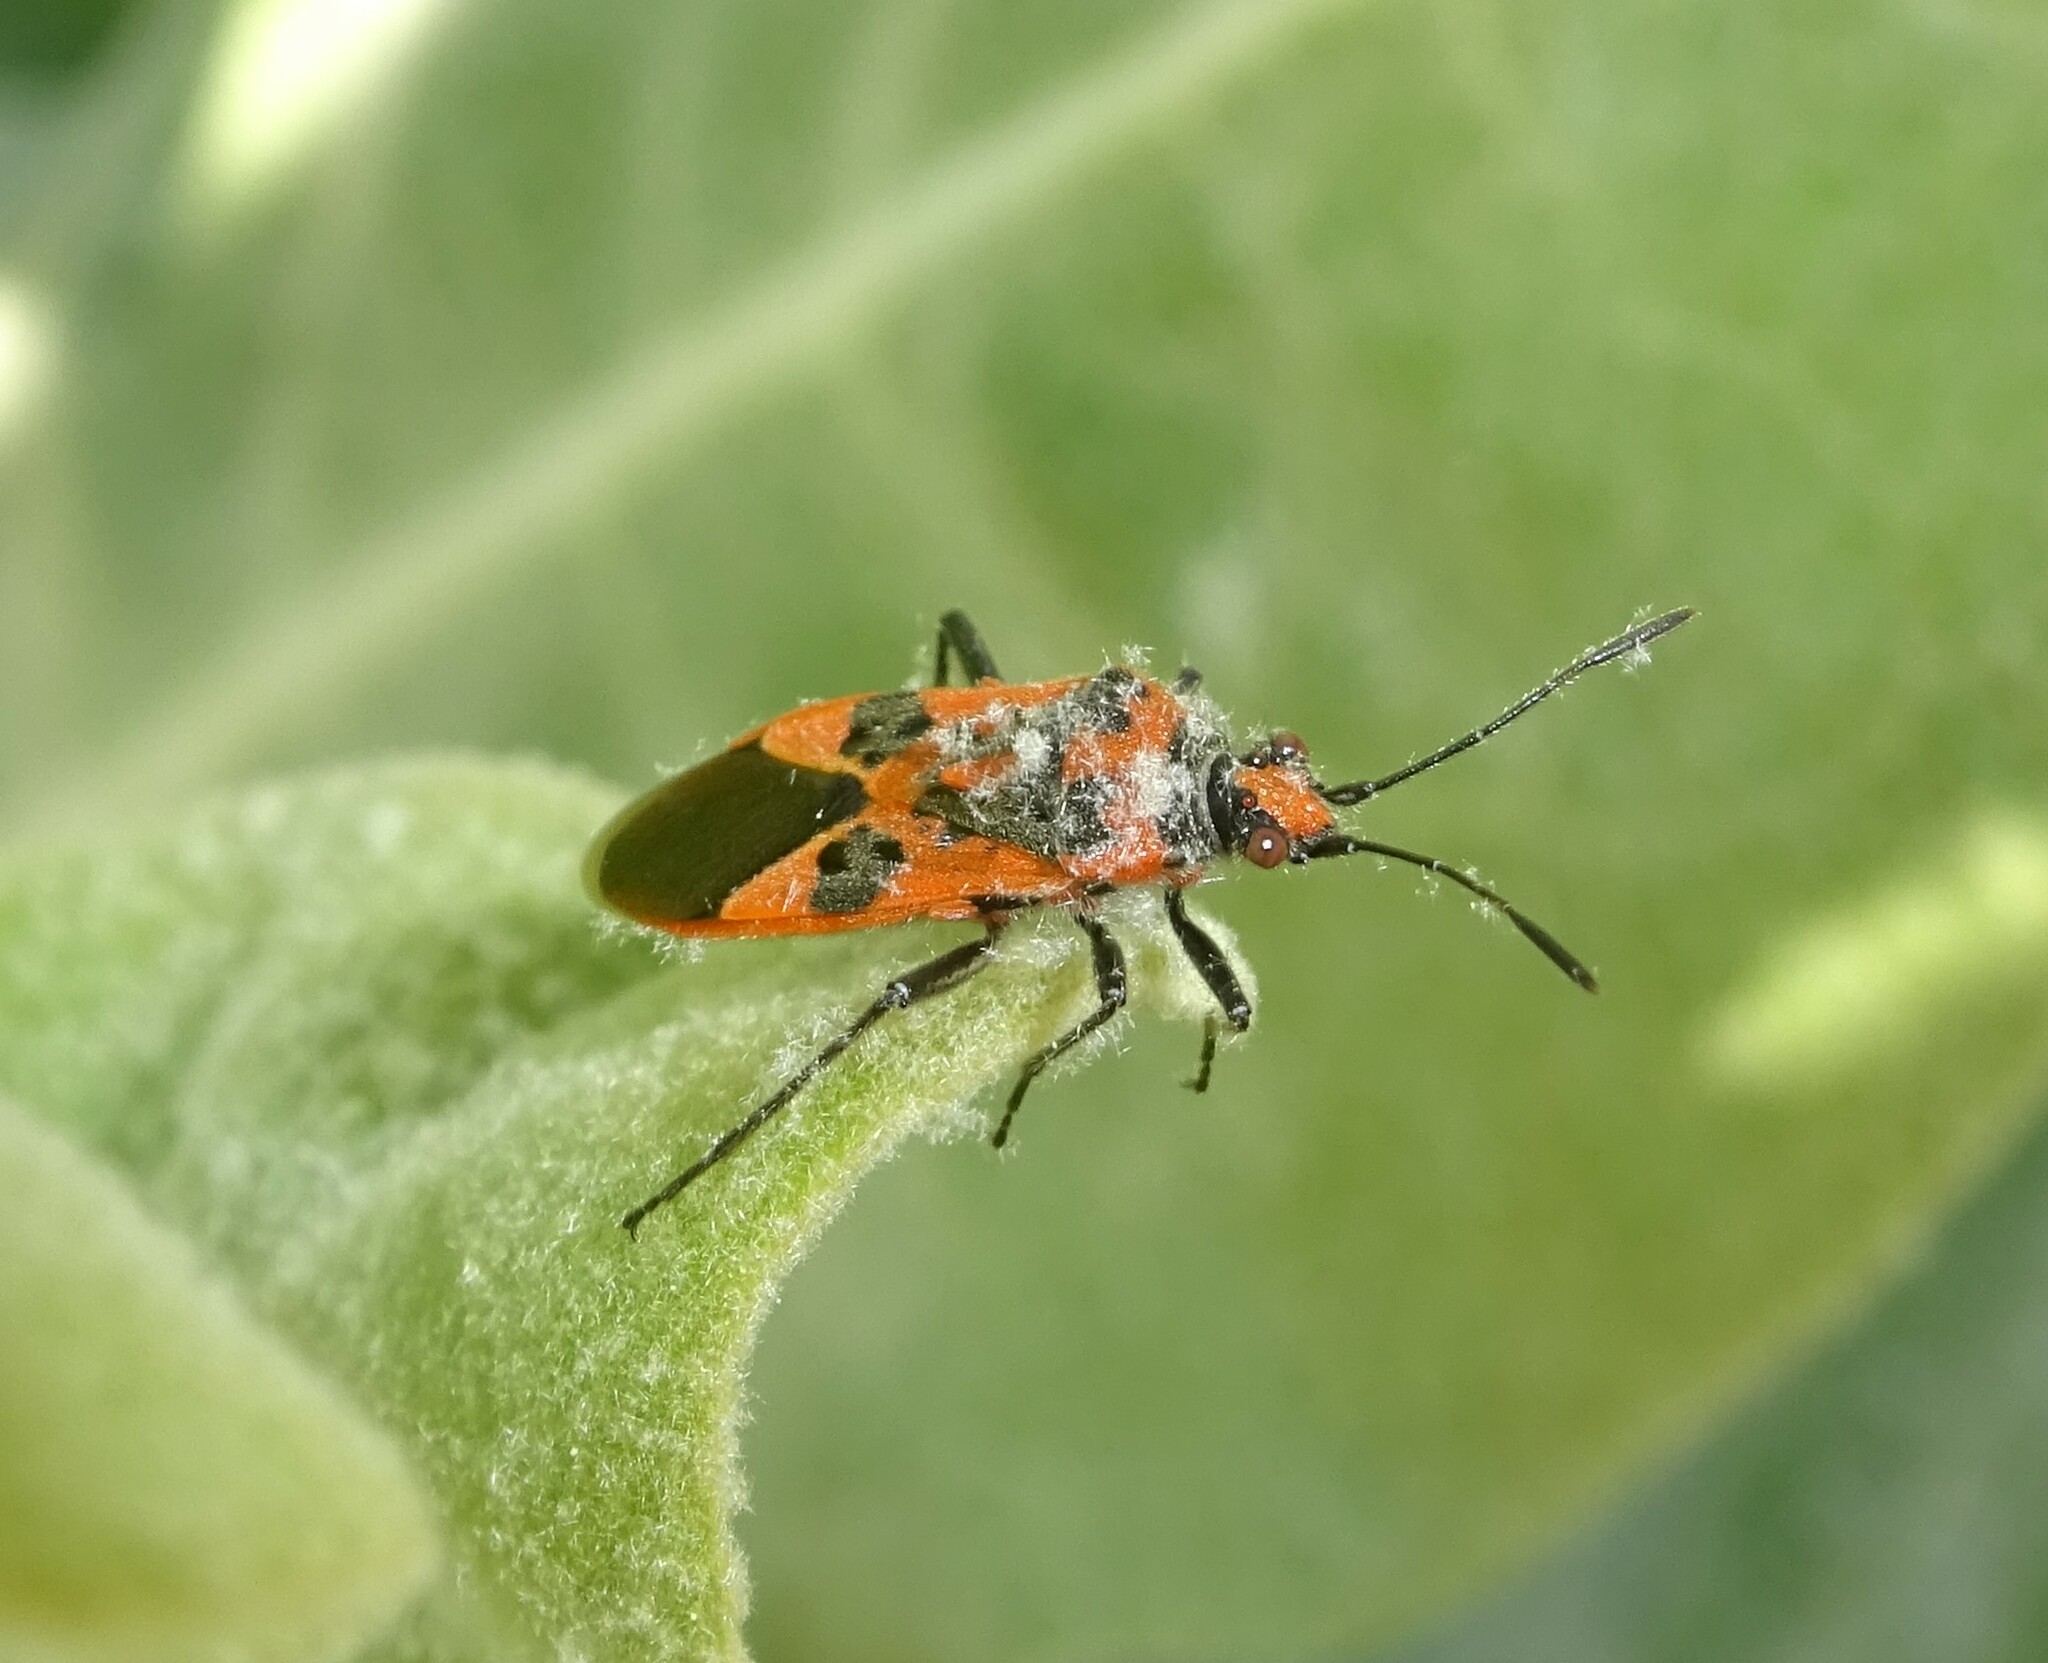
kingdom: Animalia
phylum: Arthropoda
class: Insecta
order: Hemiptera
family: Rhopalidae
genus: Corizus
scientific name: Corizus hyoscyami
